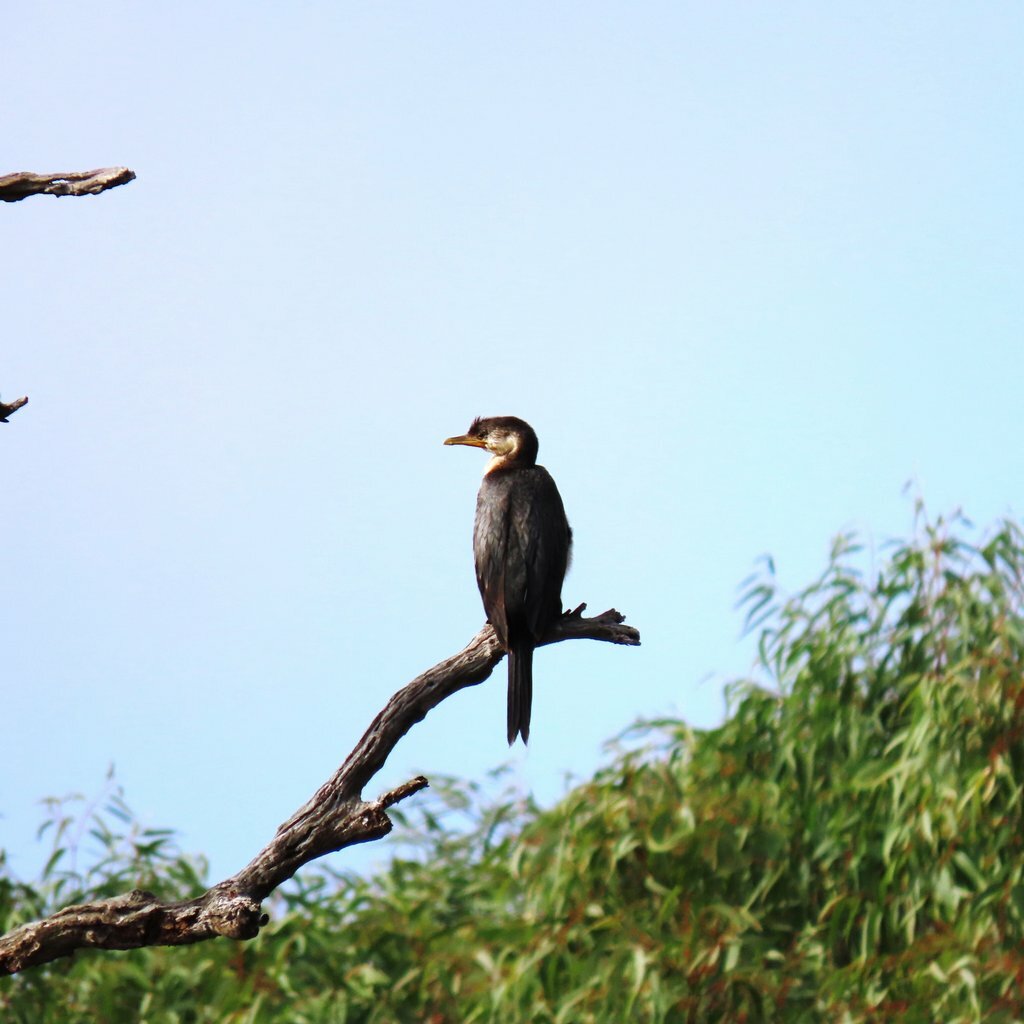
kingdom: Animalia
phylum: Chordata
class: Aves
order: Suliformes
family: Phalacrocoracidae
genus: Microcarbo
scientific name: Microcarbo melanoleucos
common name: Little pied cormorant
